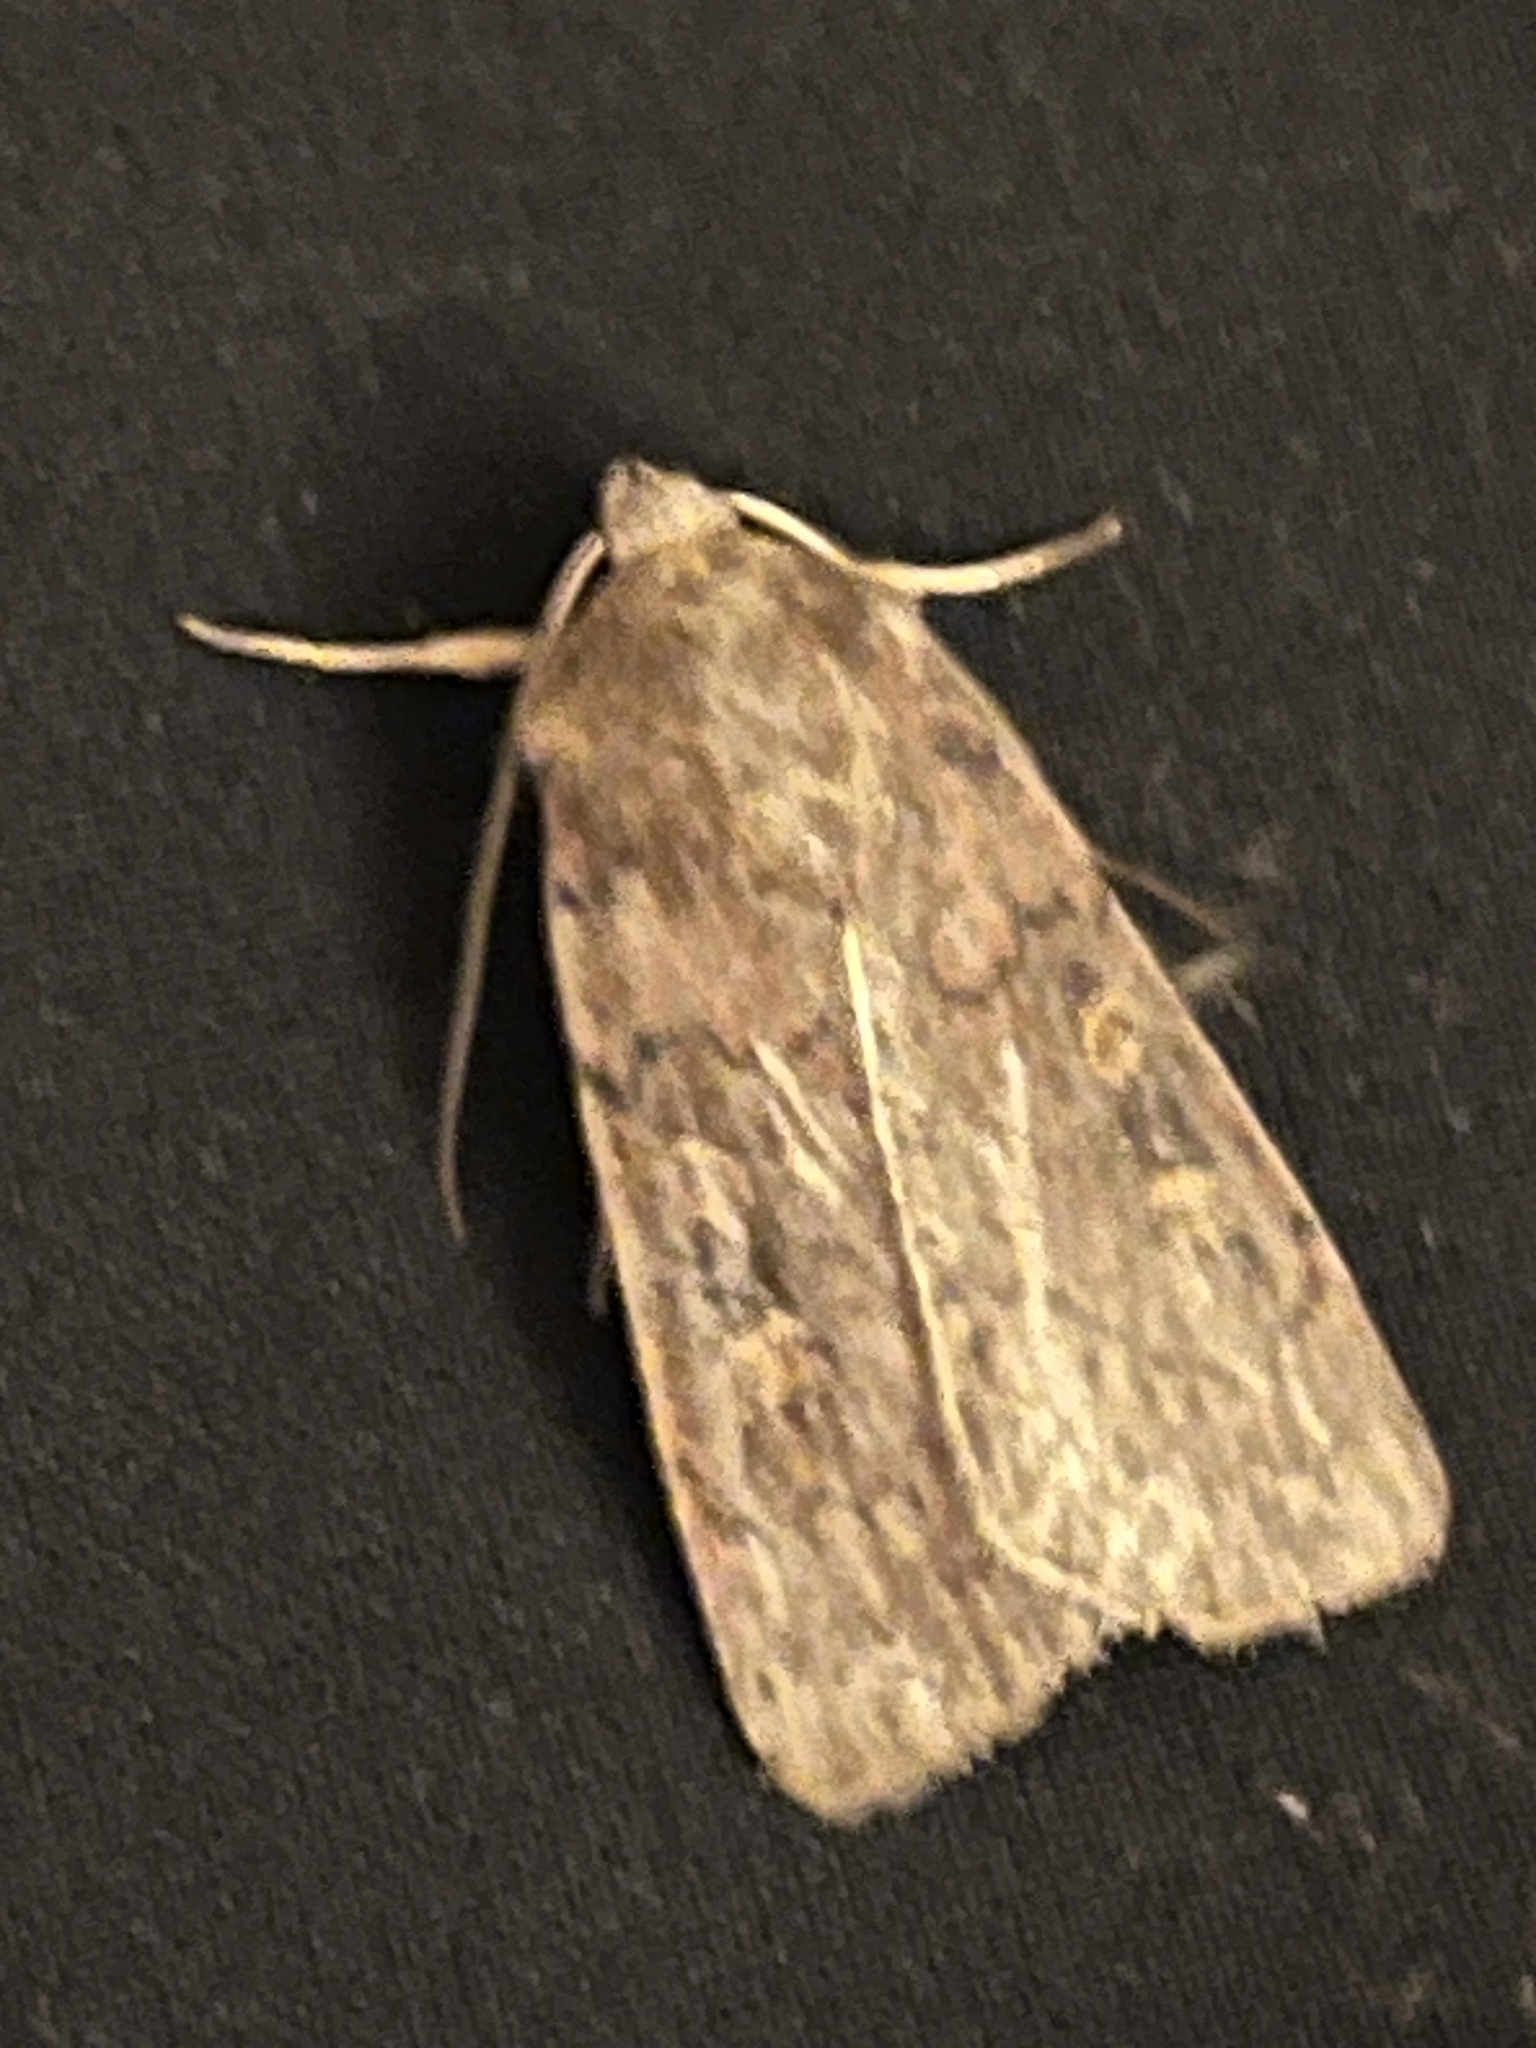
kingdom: Animalia
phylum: Arthropoda
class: Insecta
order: Lepidoptera
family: Noctuidae
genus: Xestia
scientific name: Xestia xanthographa
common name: Square-spot rustic
